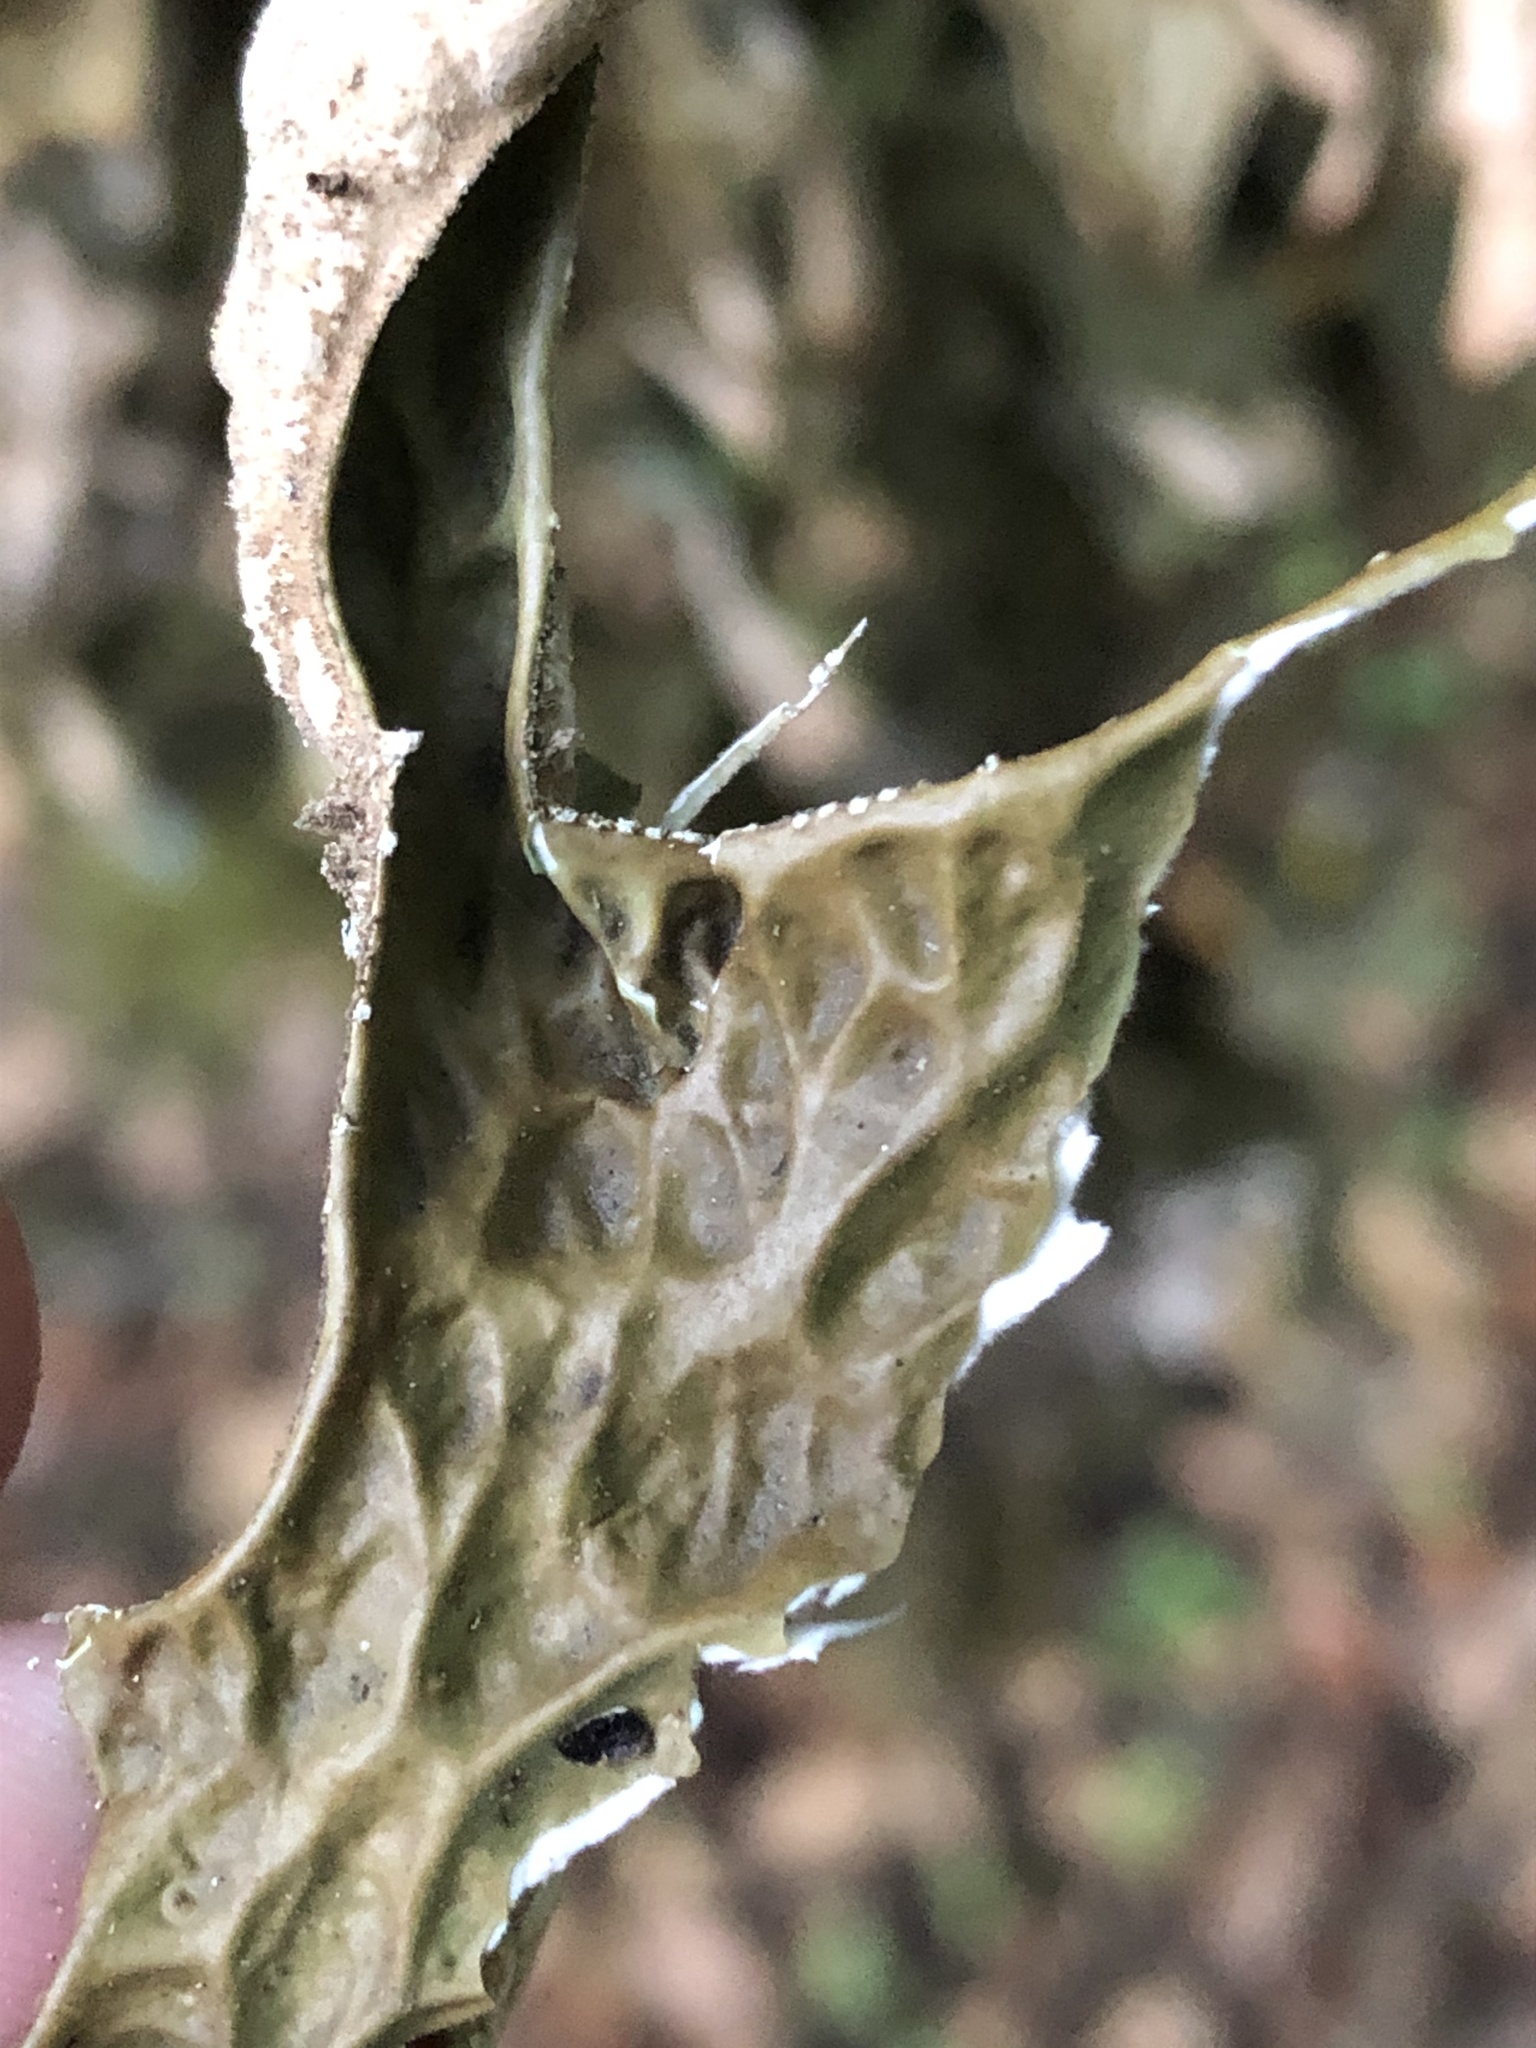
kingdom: Fungi
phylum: Ascomycota
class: Lecanoromycetes
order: Peltigerales
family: Lobariaceae
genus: Lobaria
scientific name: Lobaria pulmonaria
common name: Lungwort
